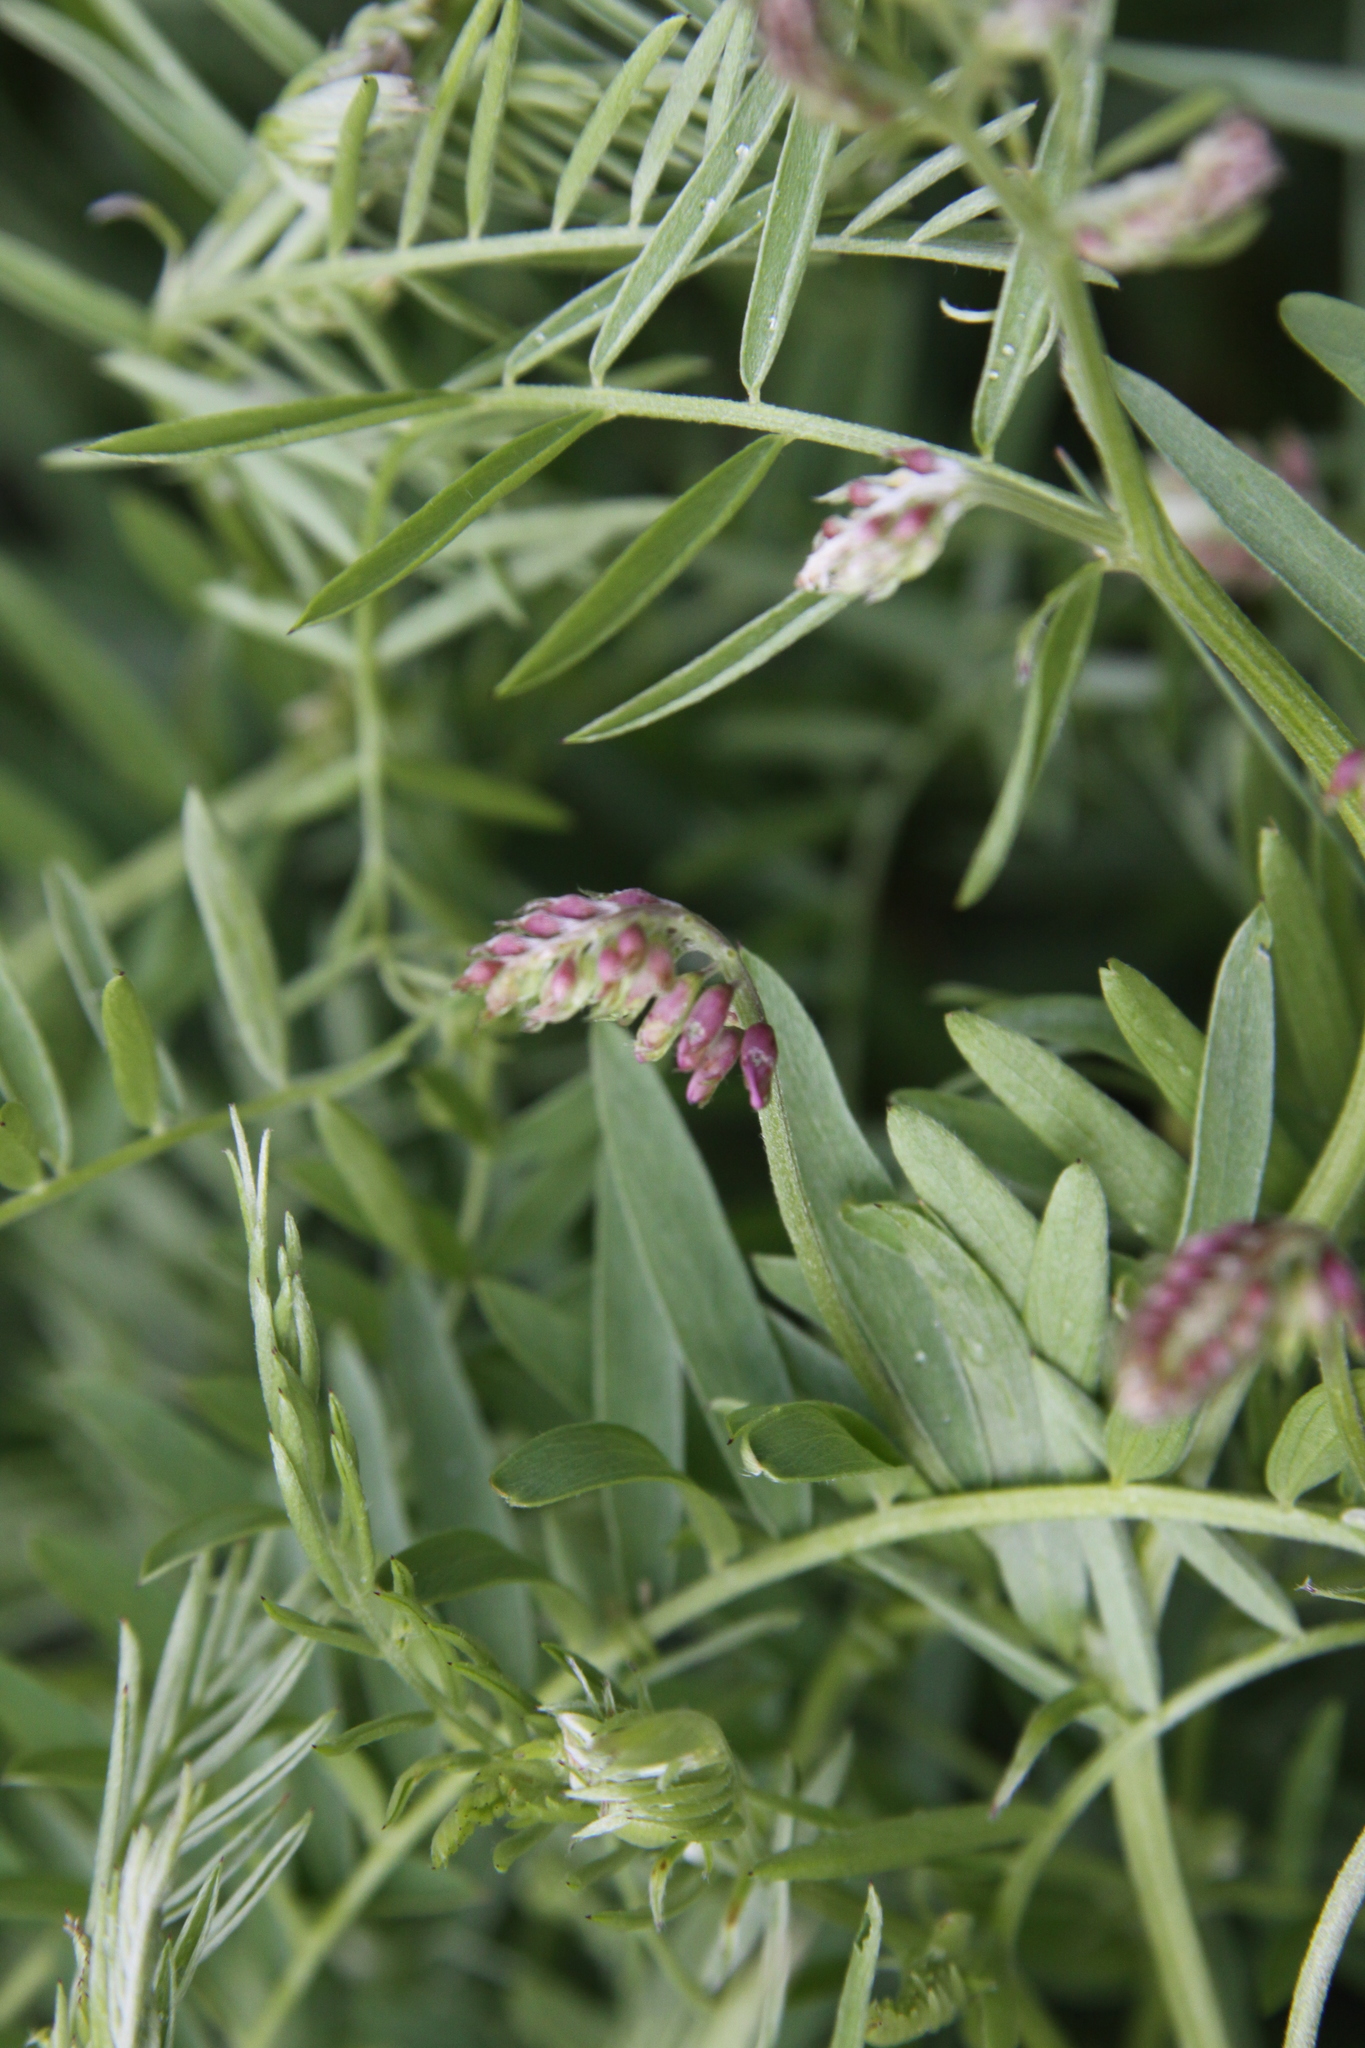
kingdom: Plantae
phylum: Tracheophyta
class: Magnoliopsida
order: Fabales
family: Fabaceae
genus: Vicia
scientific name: Vicia cracca
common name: Bird vetch
